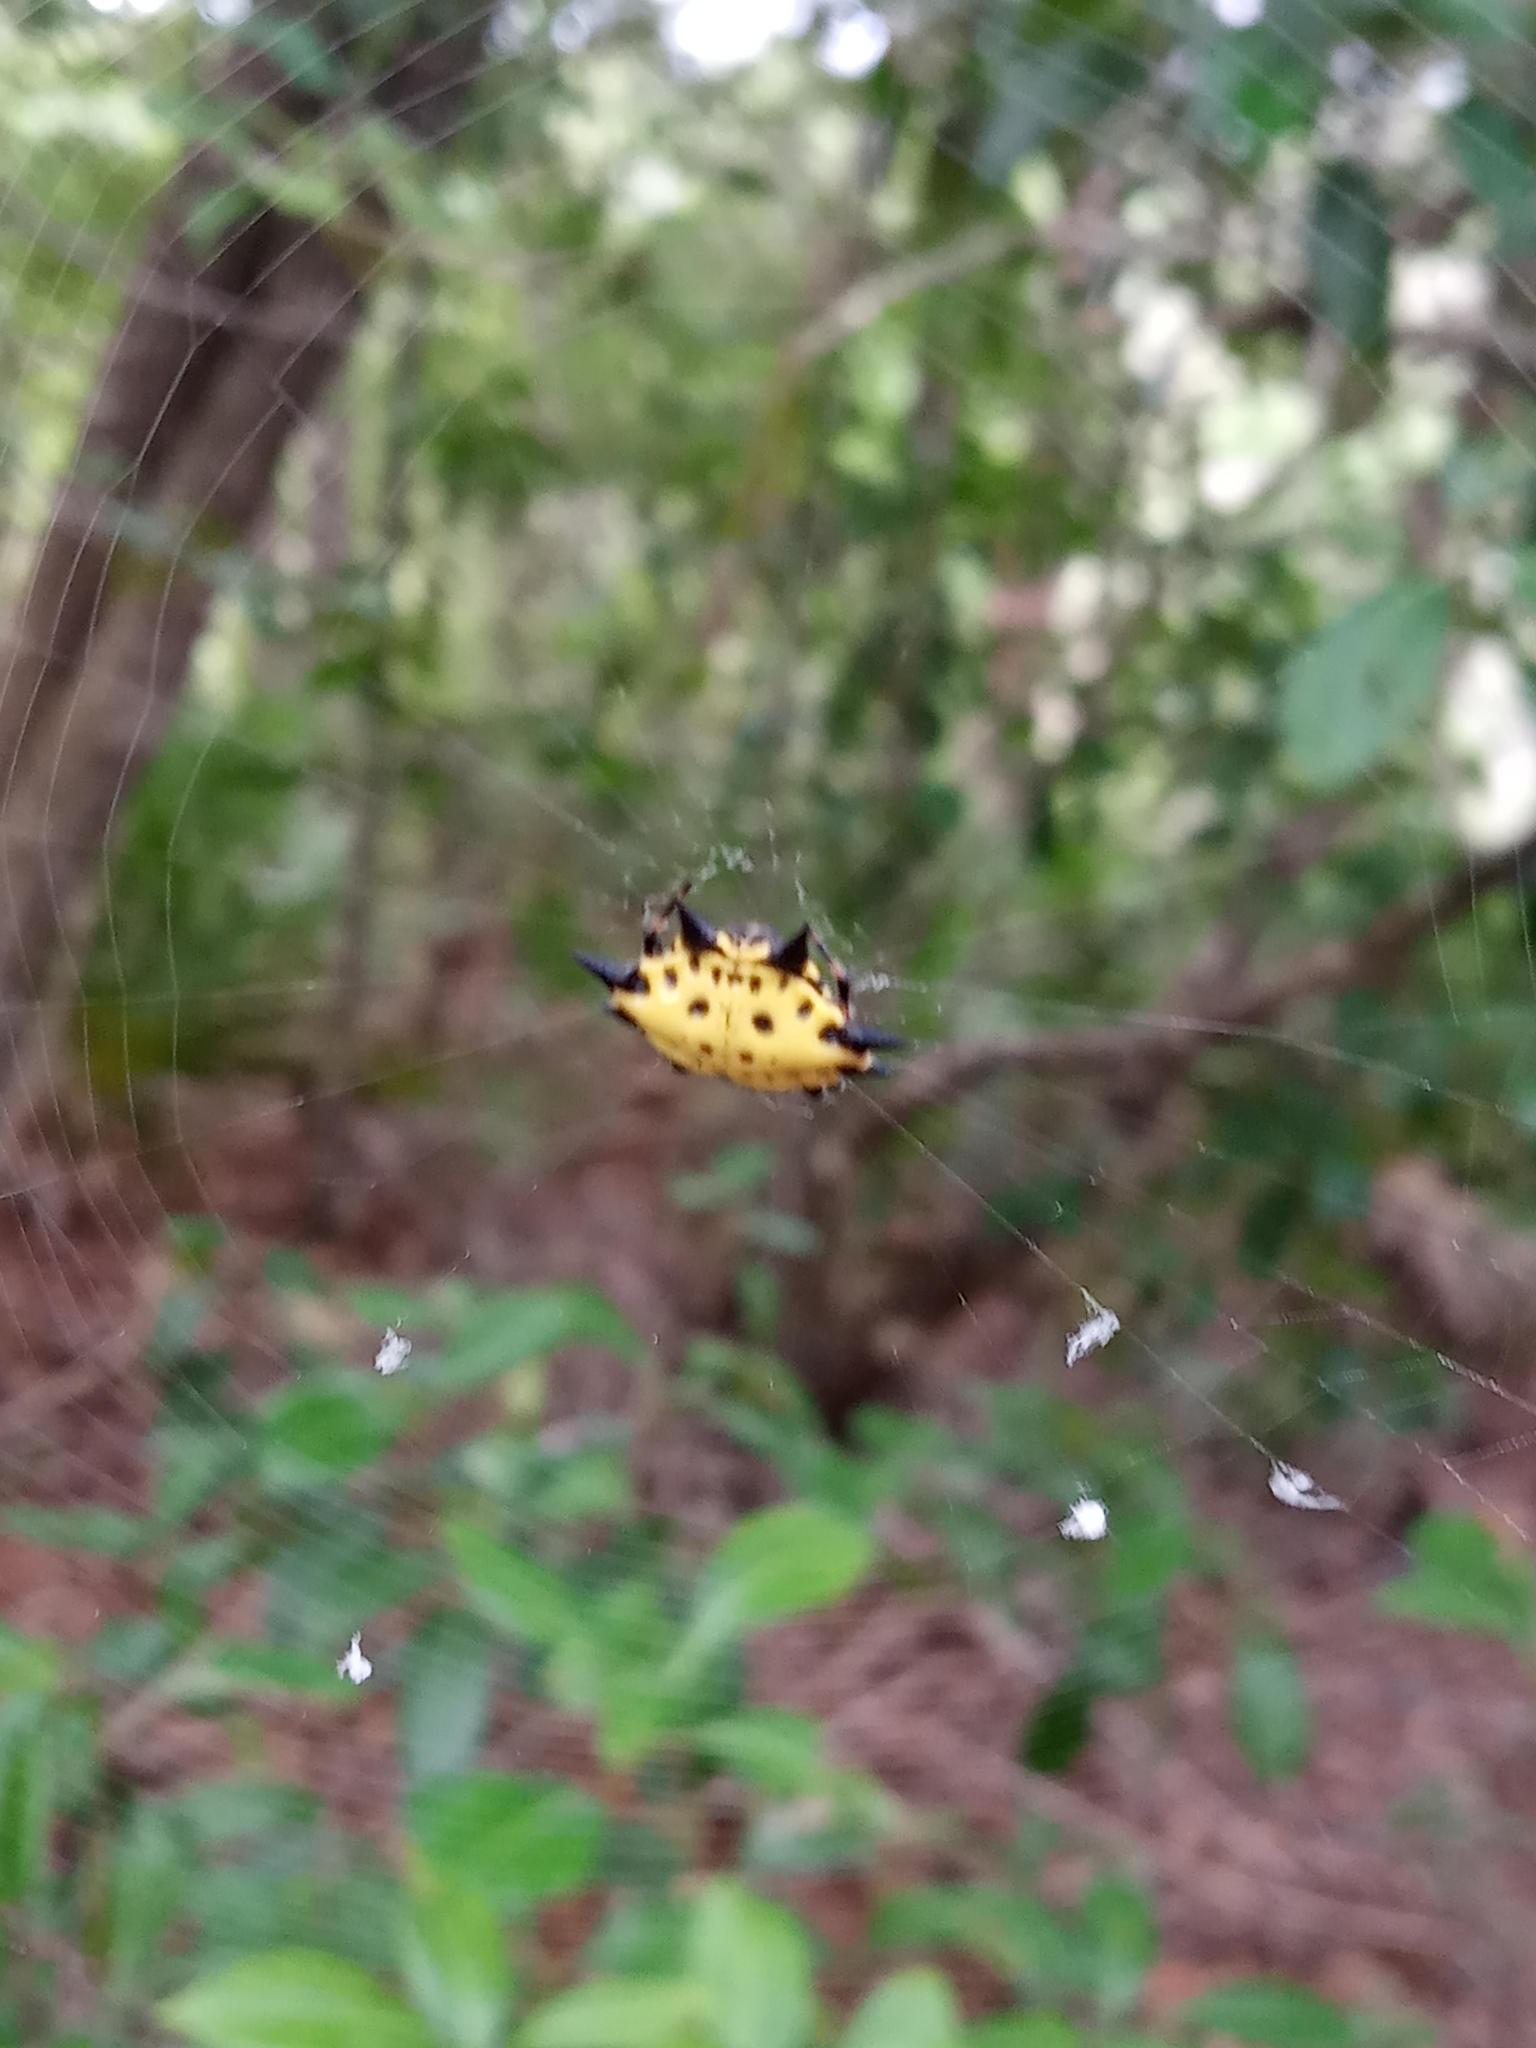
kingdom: Animalia
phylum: Arthropoda
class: Arachnida
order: Araneae
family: Araneidae
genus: Gasteracantha
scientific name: Gasteracantha cancriformis
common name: Orb weavers
